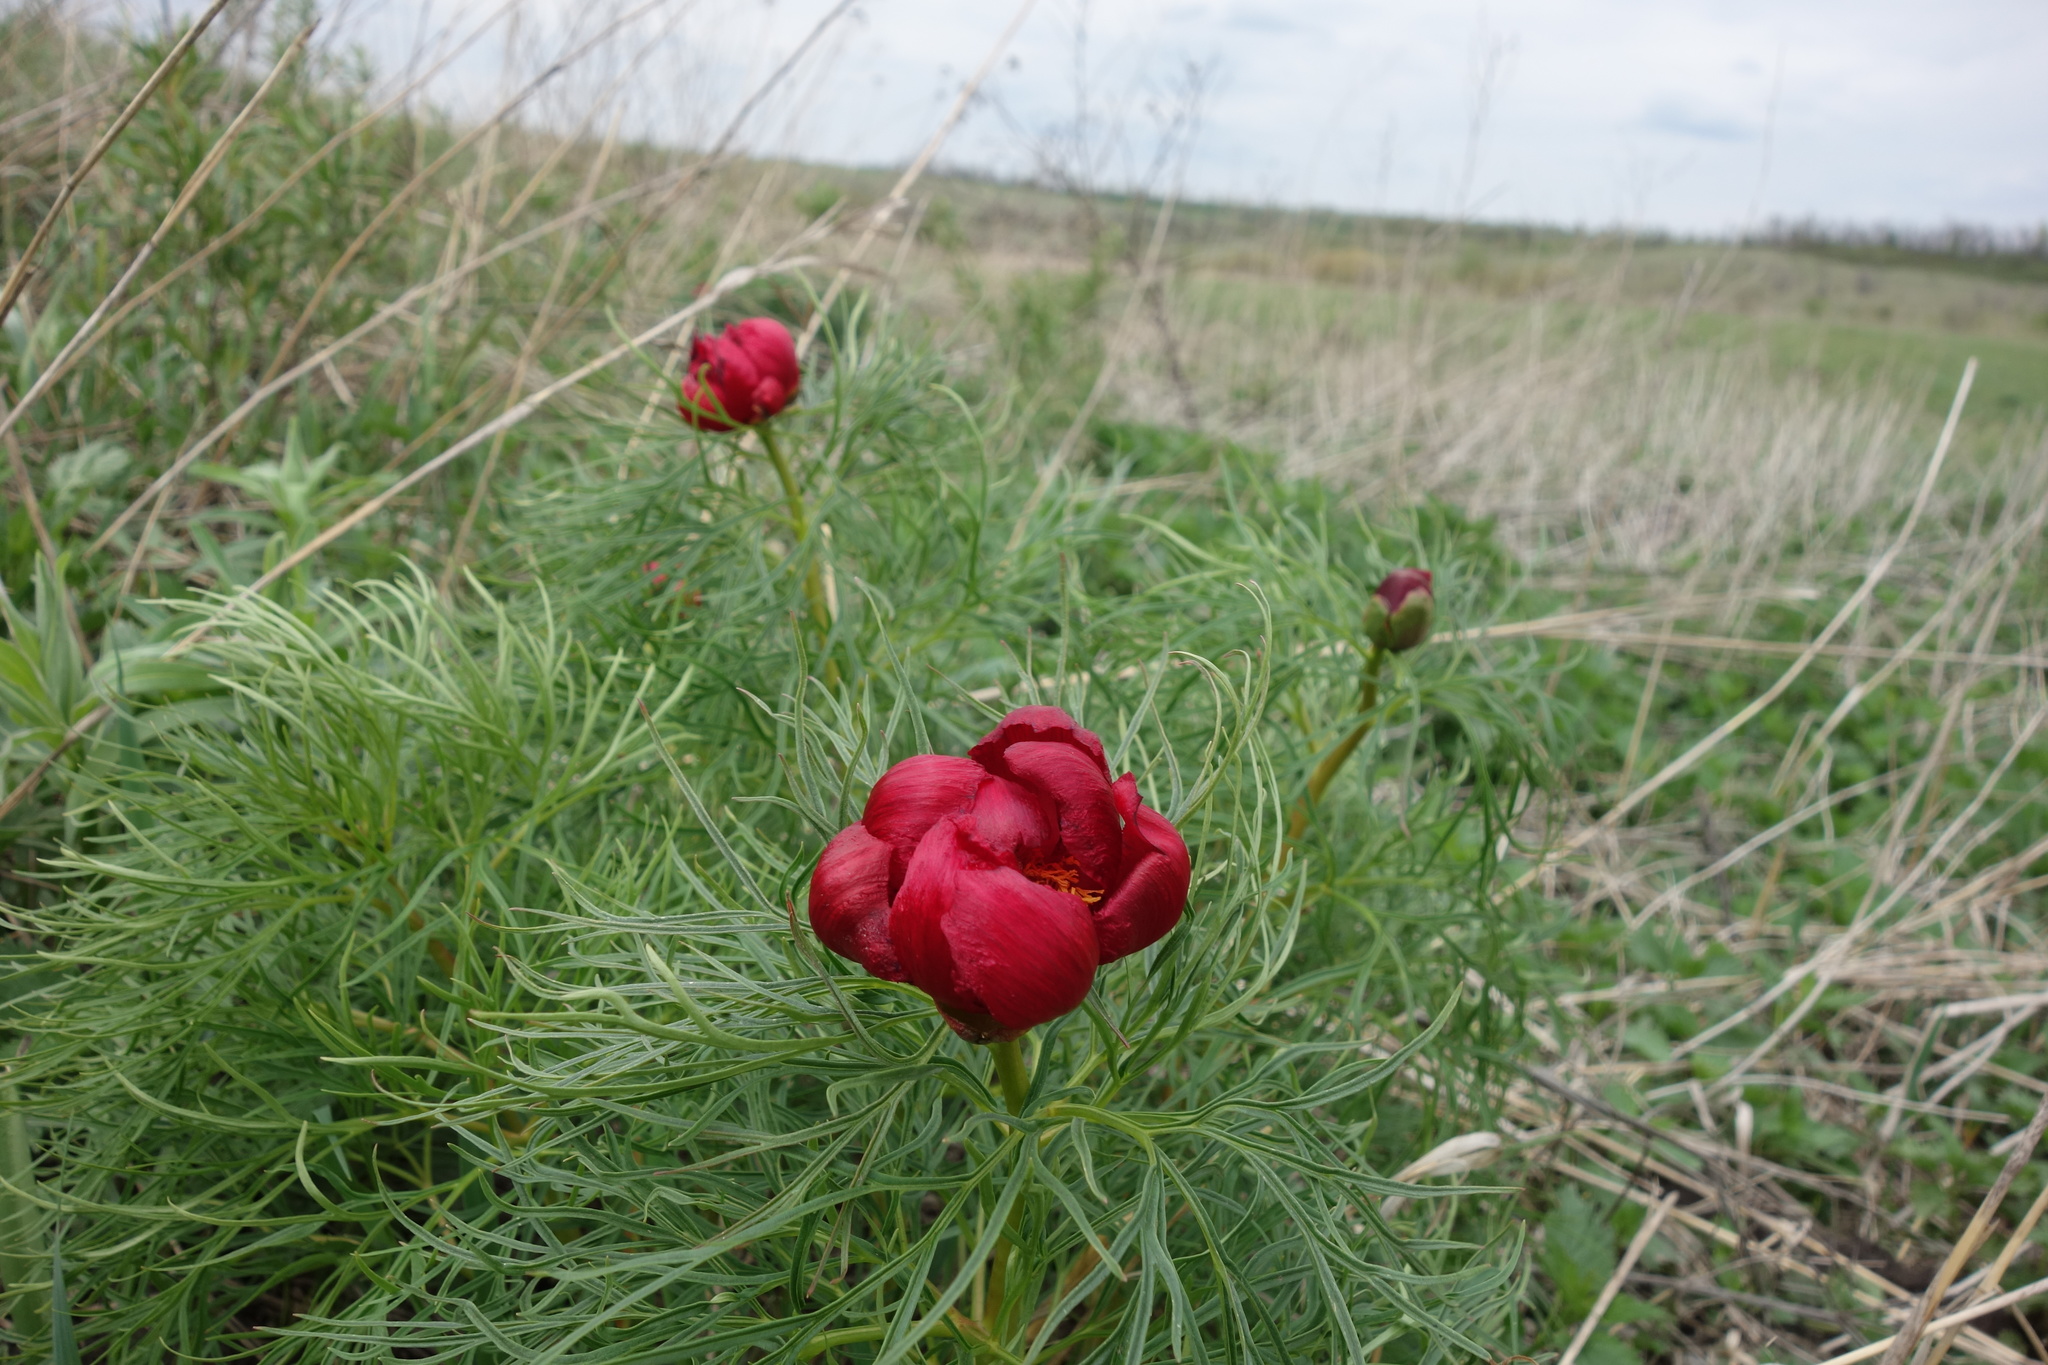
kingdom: Plantae
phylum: Tracheophyta
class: Magnoliopsida
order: Saxifragales
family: Paeoniaceae
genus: Paeonia
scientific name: Paeonia tenuifolia
